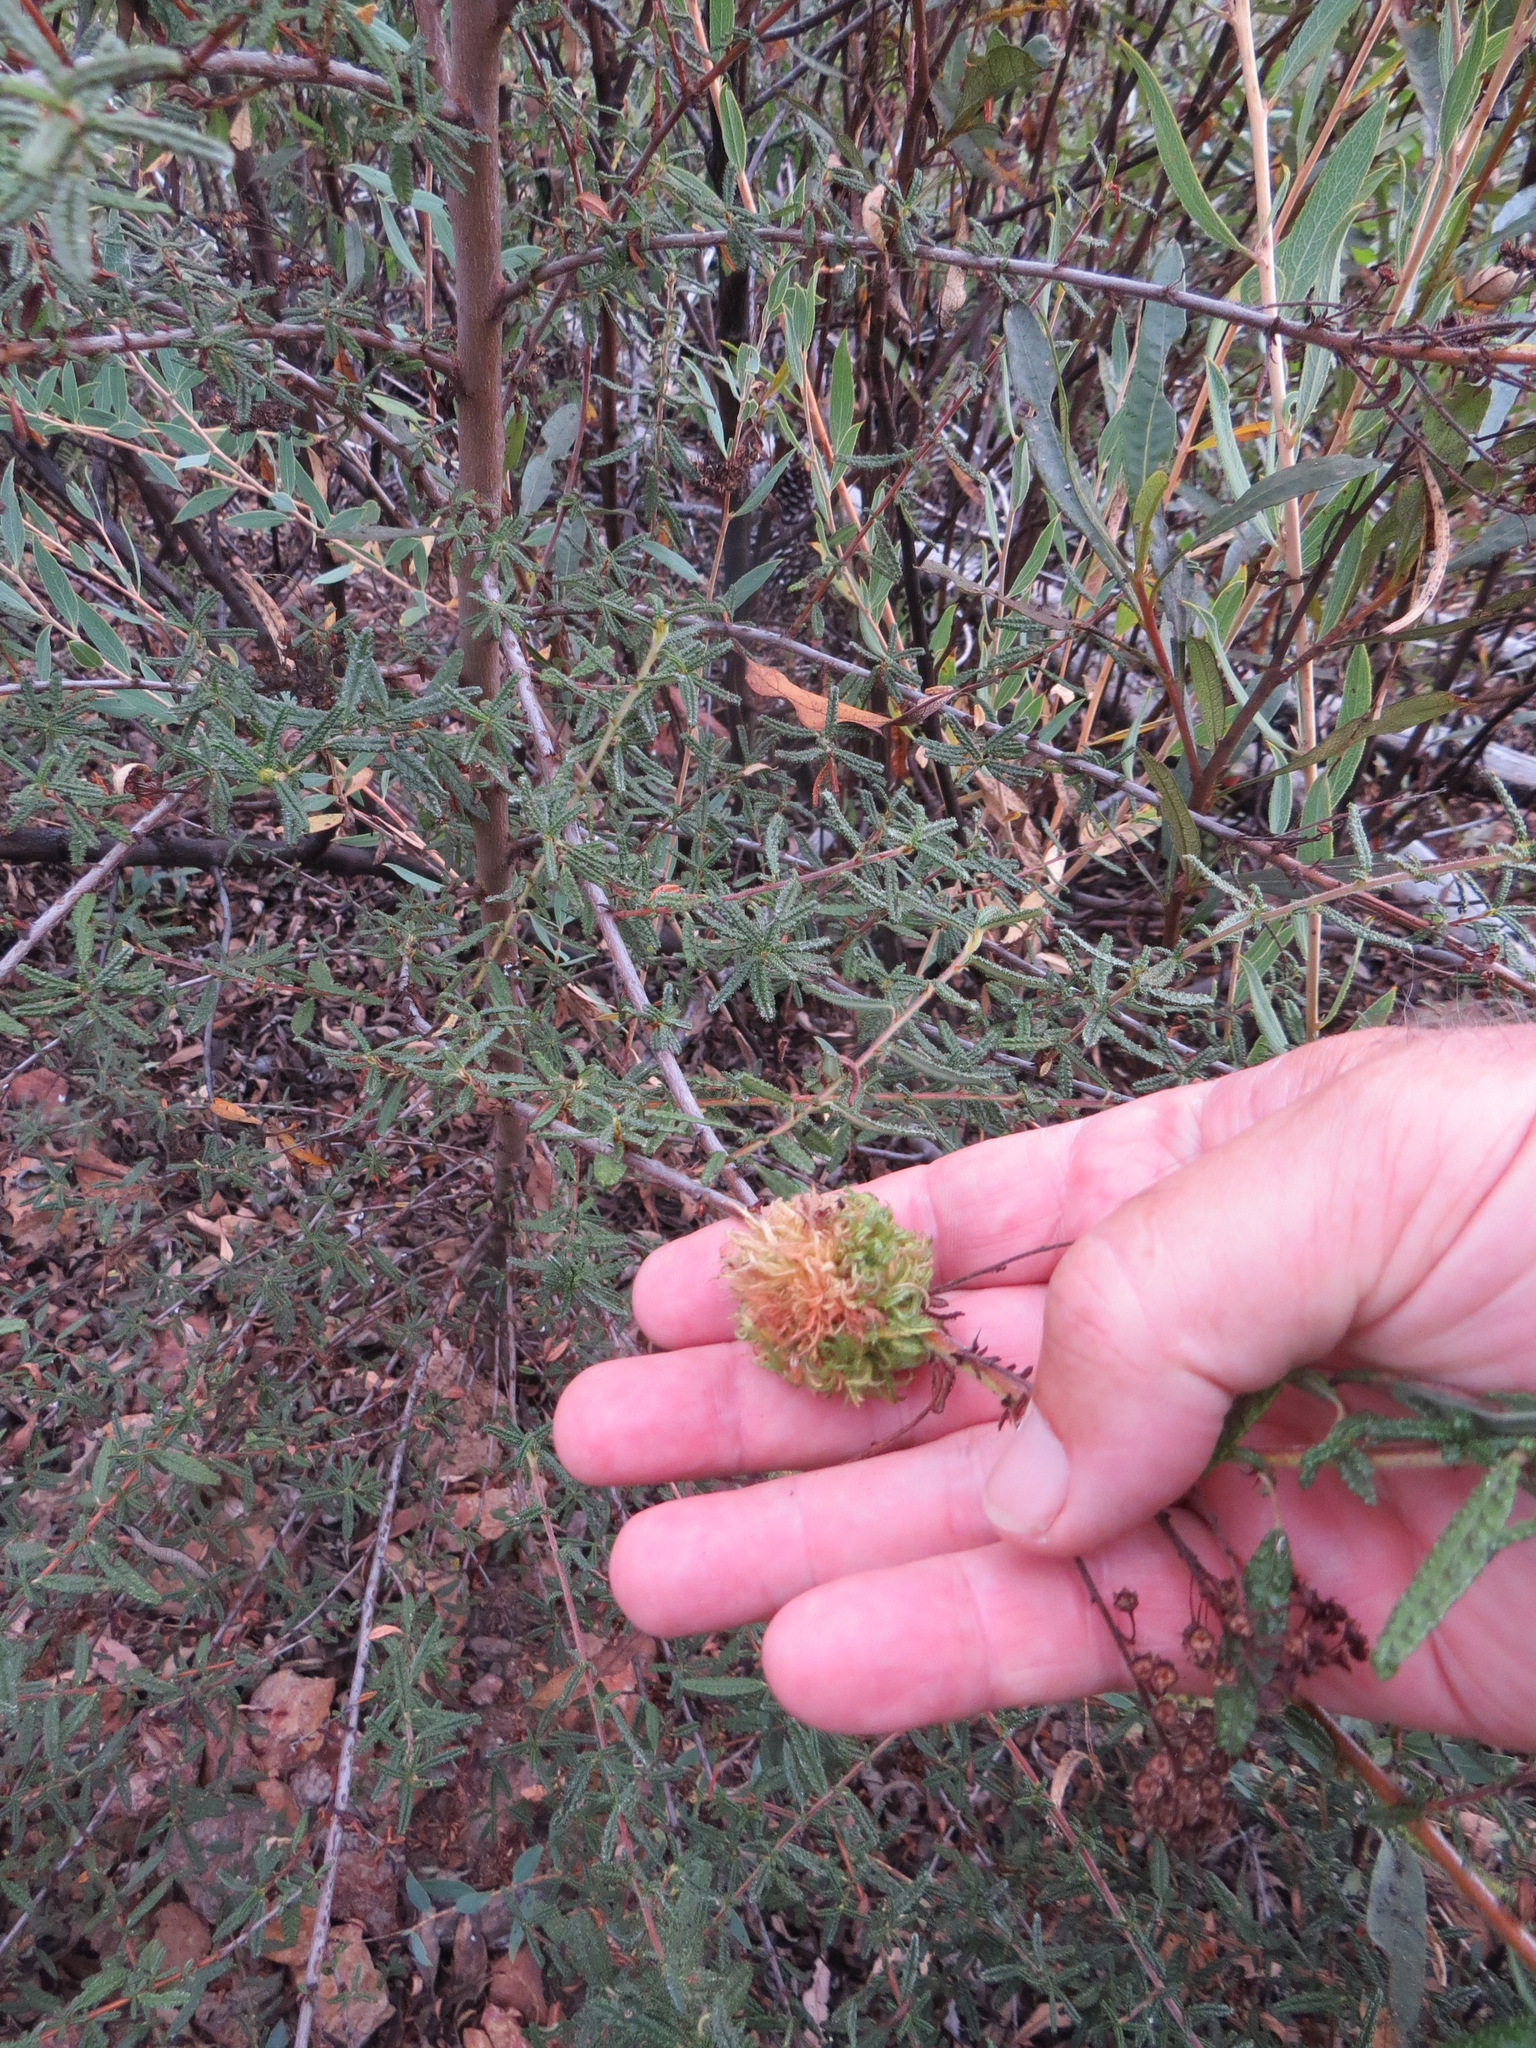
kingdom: Animalia
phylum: Arthropoda
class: Insecta
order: Diptera
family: Cecidomyiidae
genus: Asphondylia
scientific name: Asphondylia ceanothi
